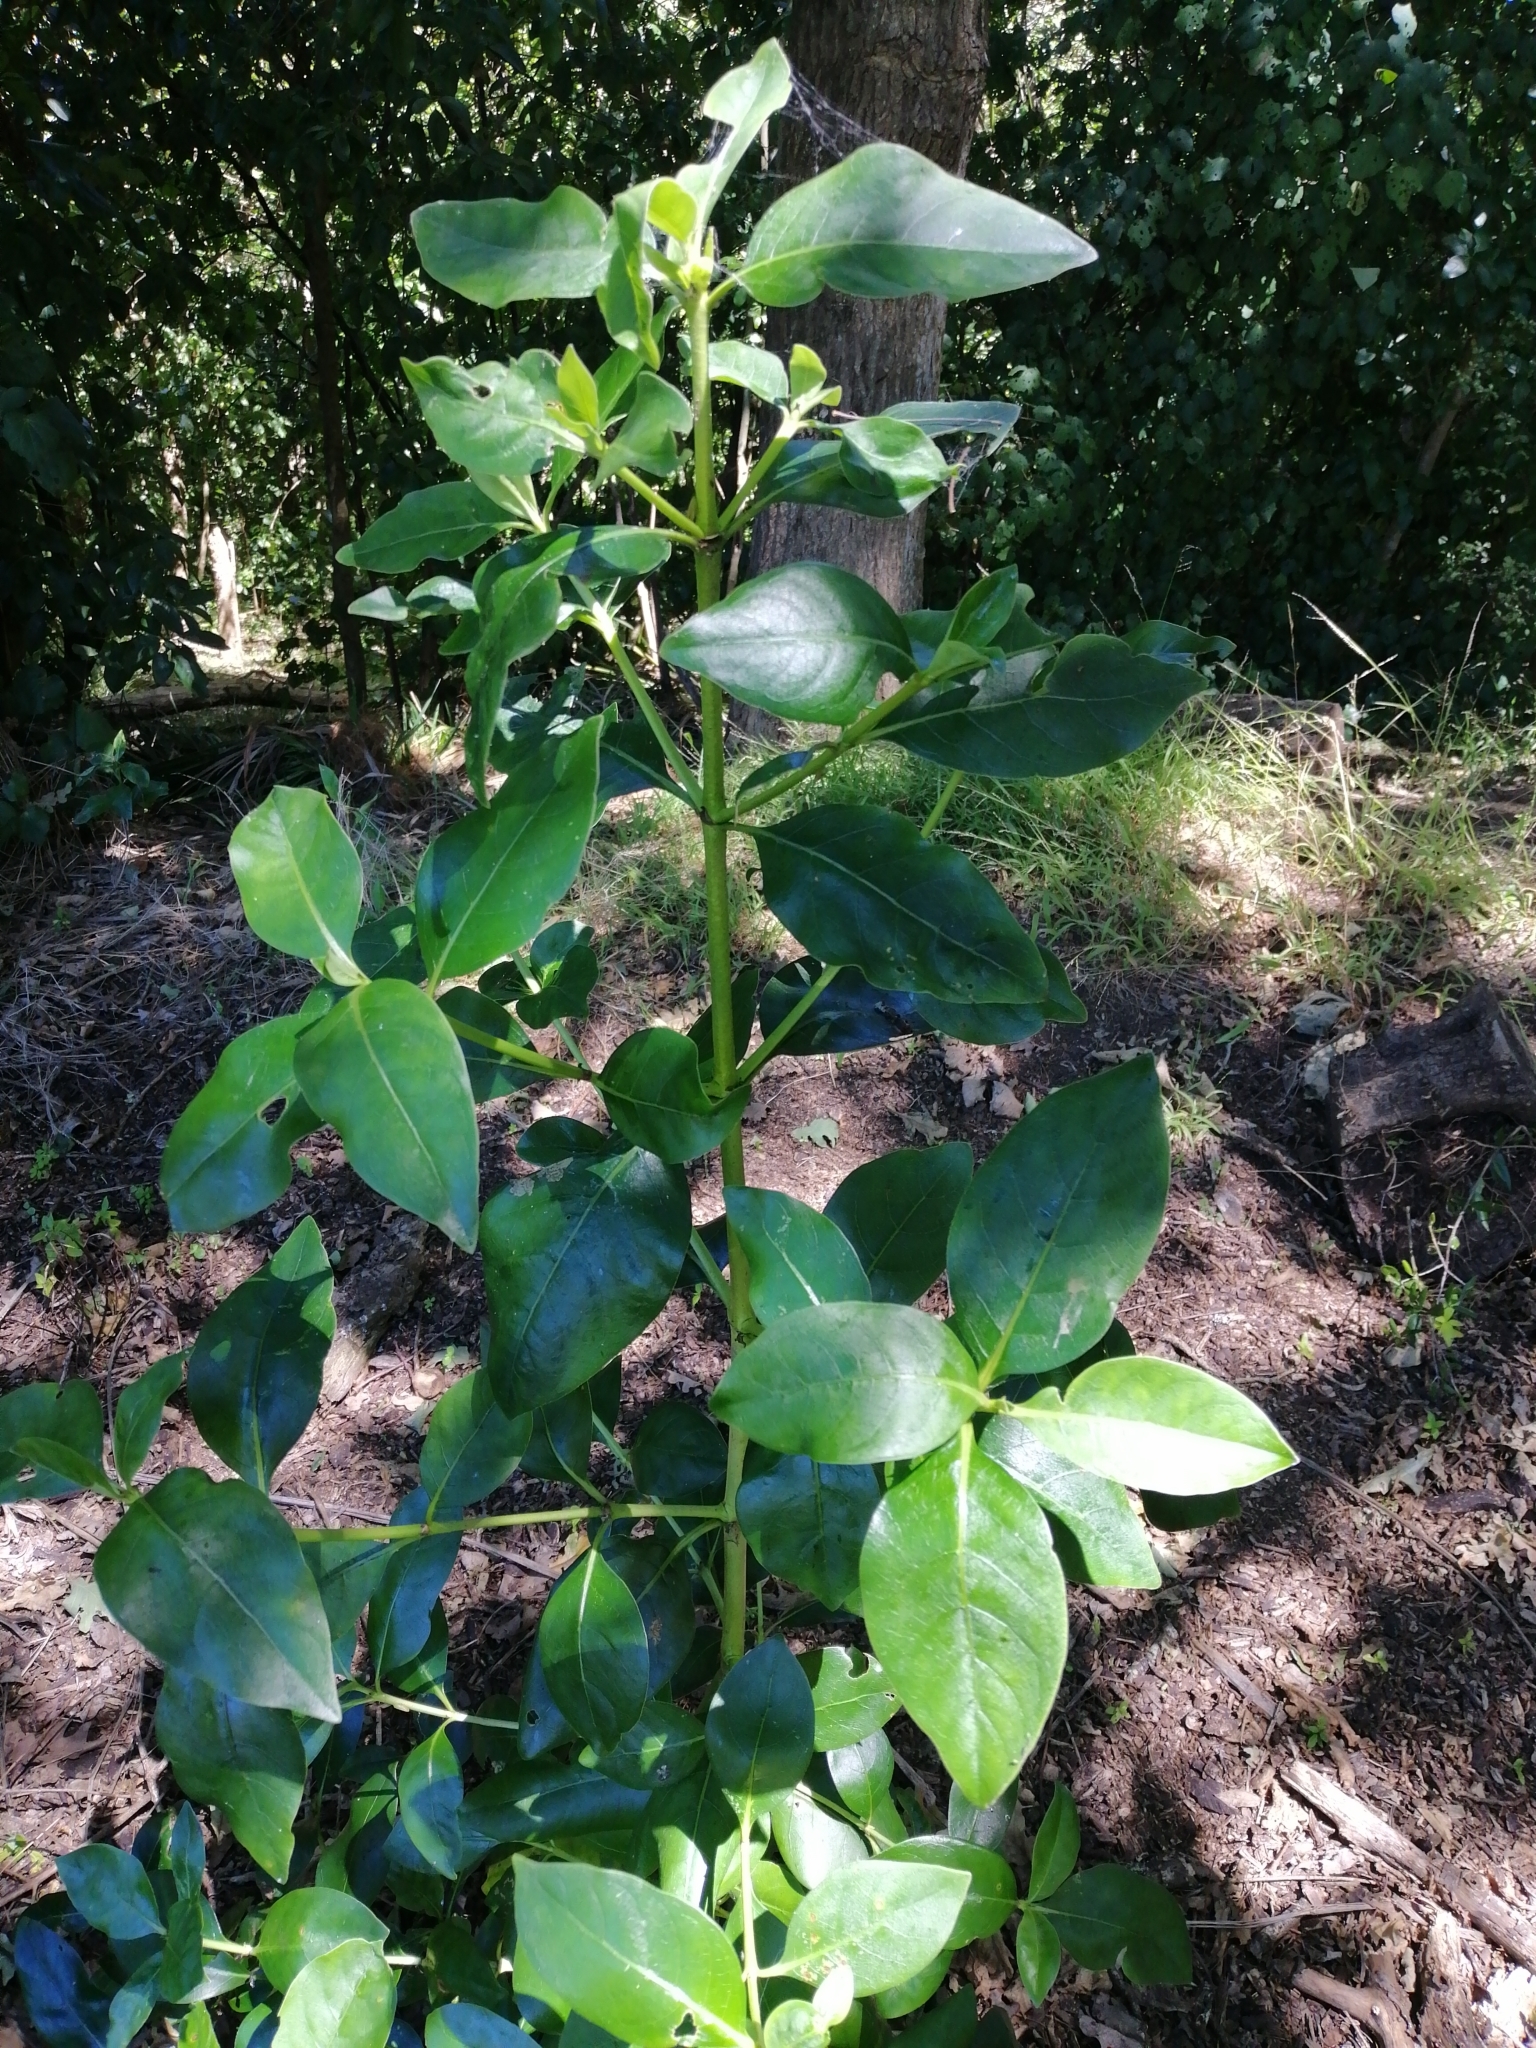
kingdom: Plantae
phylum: Tracheophyta
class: Magnoliopsida
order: Gentianales
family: Rubiaceae
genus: Coprosma
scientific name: Coprosma macrocarpa
